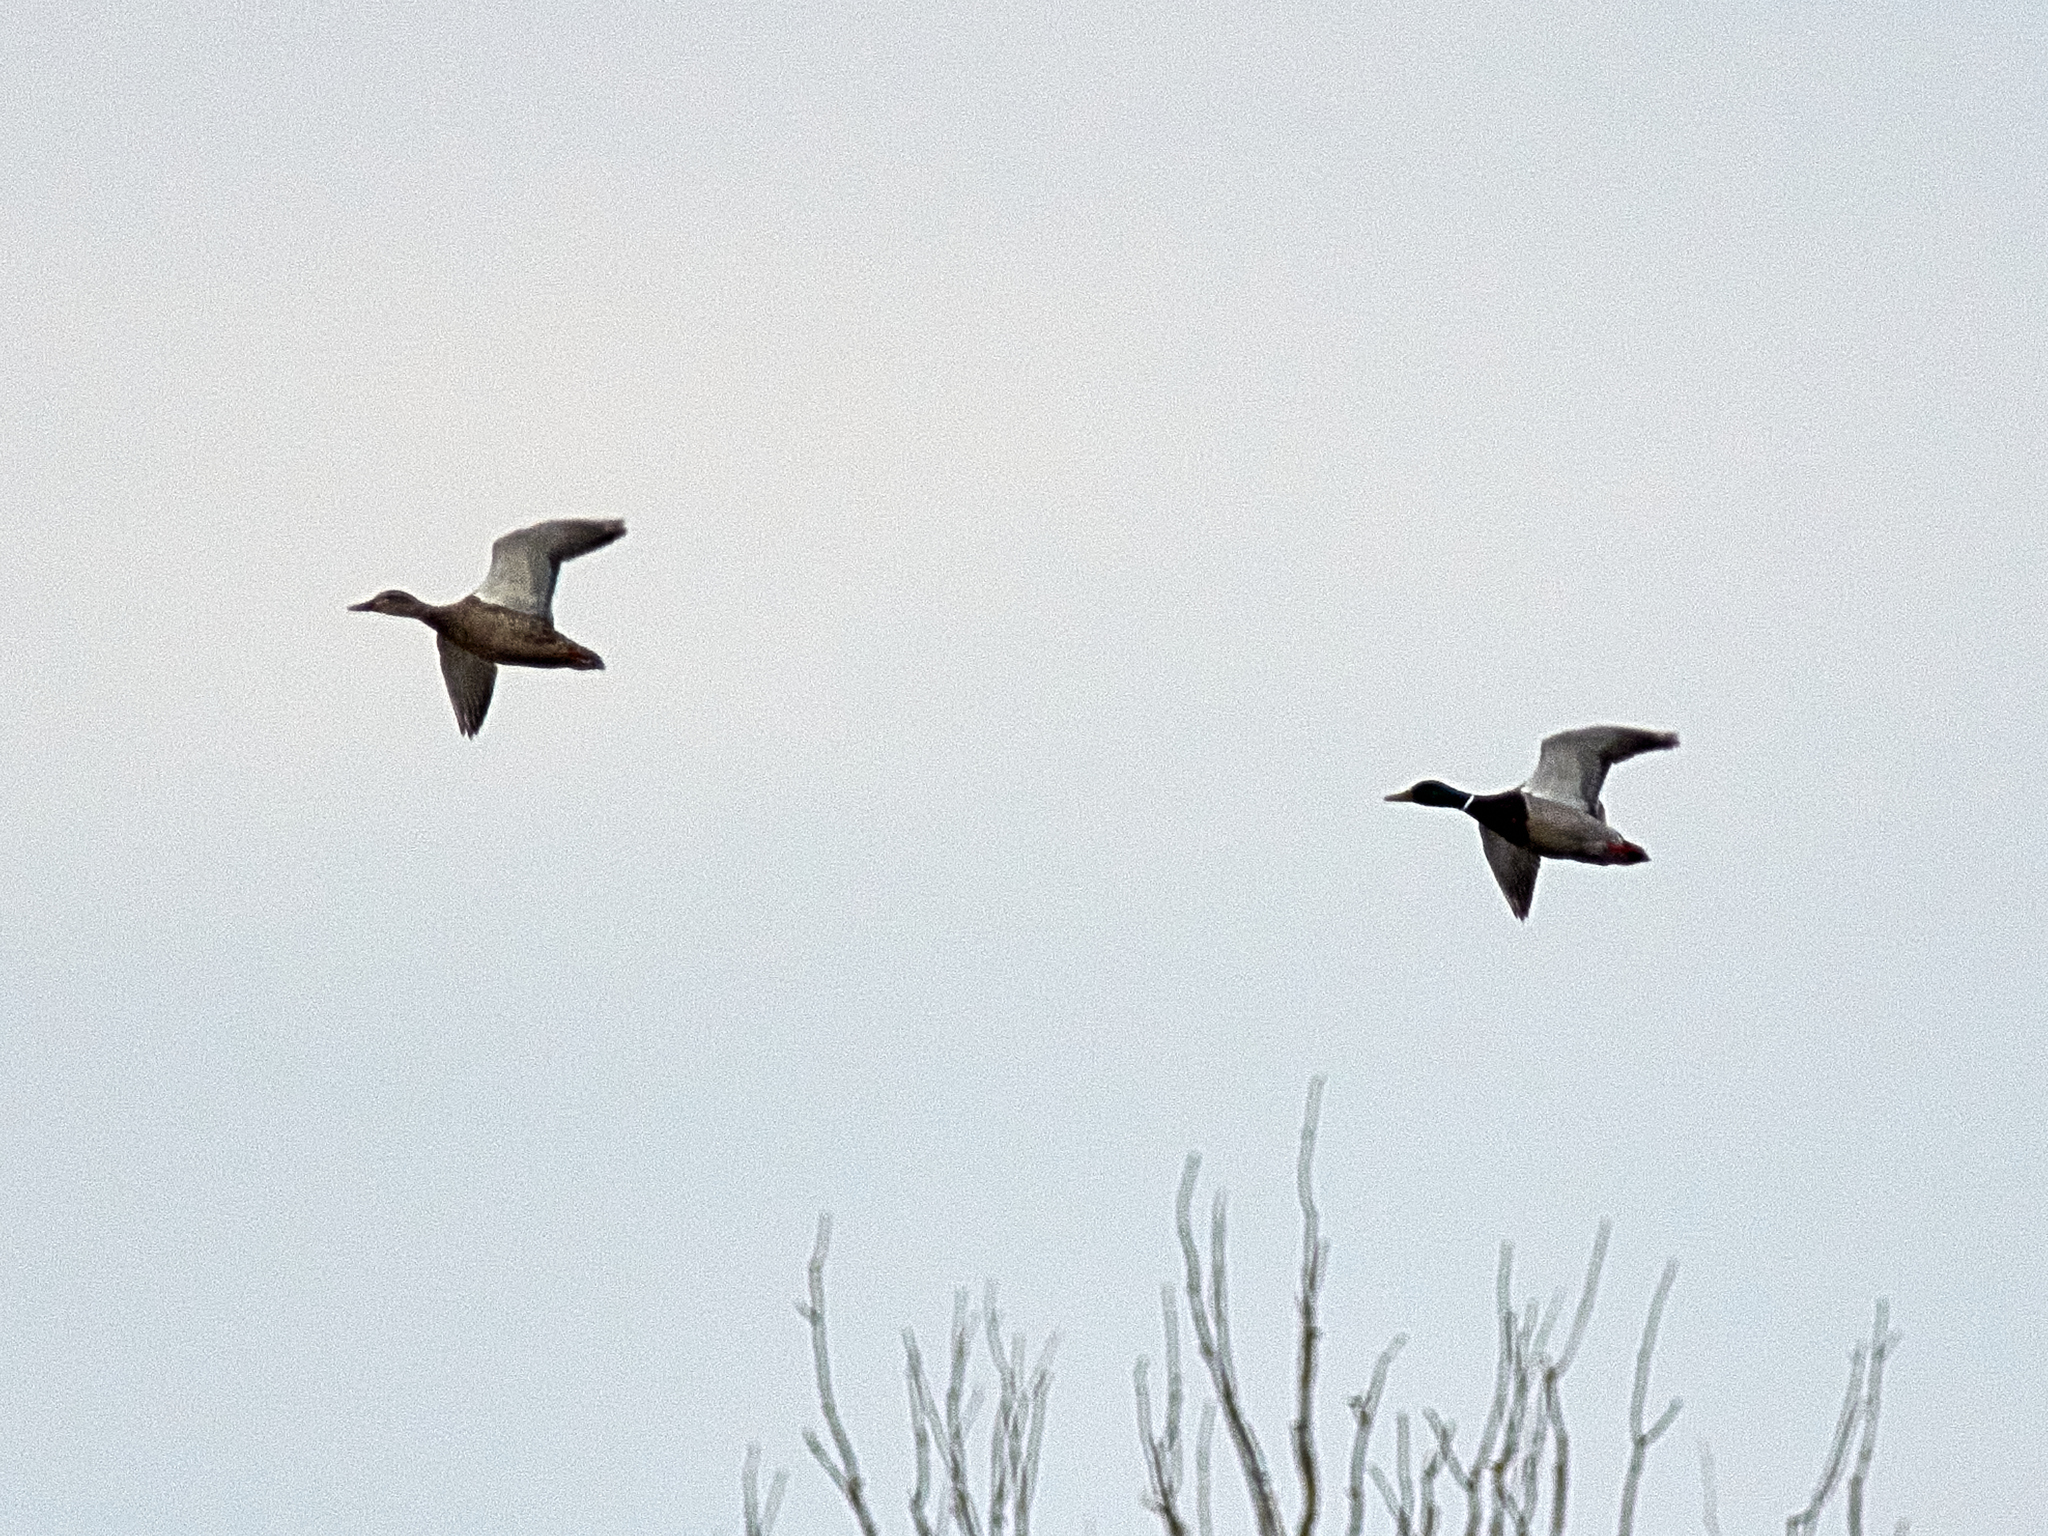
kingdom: Animalia
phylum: Chordata
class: Aves
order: Anseriformes
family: Anatidae
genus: Anas
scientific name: Anas platyrhynchos
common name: Mallard
